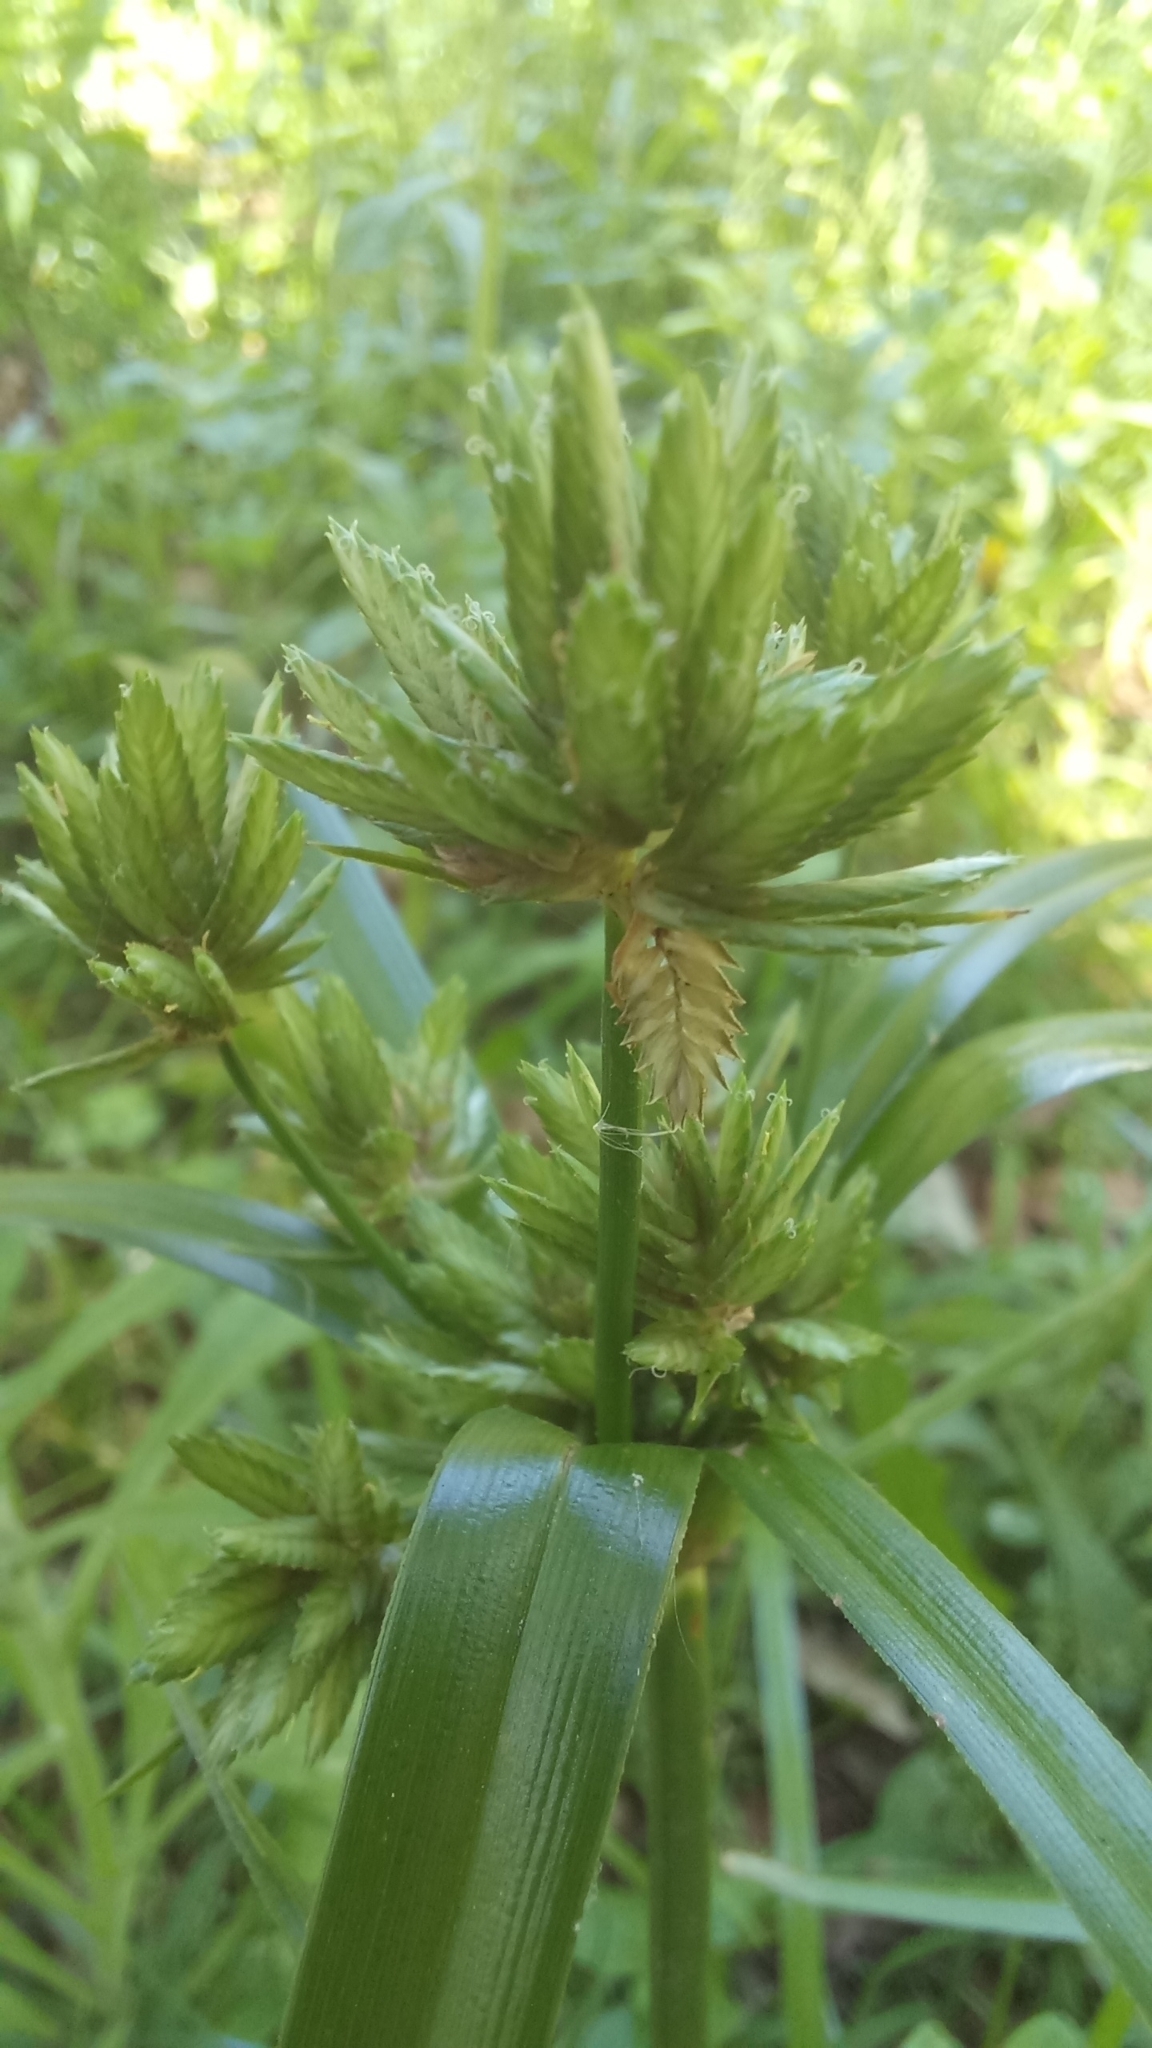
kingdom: Plantae
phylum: Tracheophyta
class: Liliopsida
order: Poales
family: Cyperaceae
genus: Cyperus
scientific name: Cyperus eragrostis
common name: Tall flatsedge
